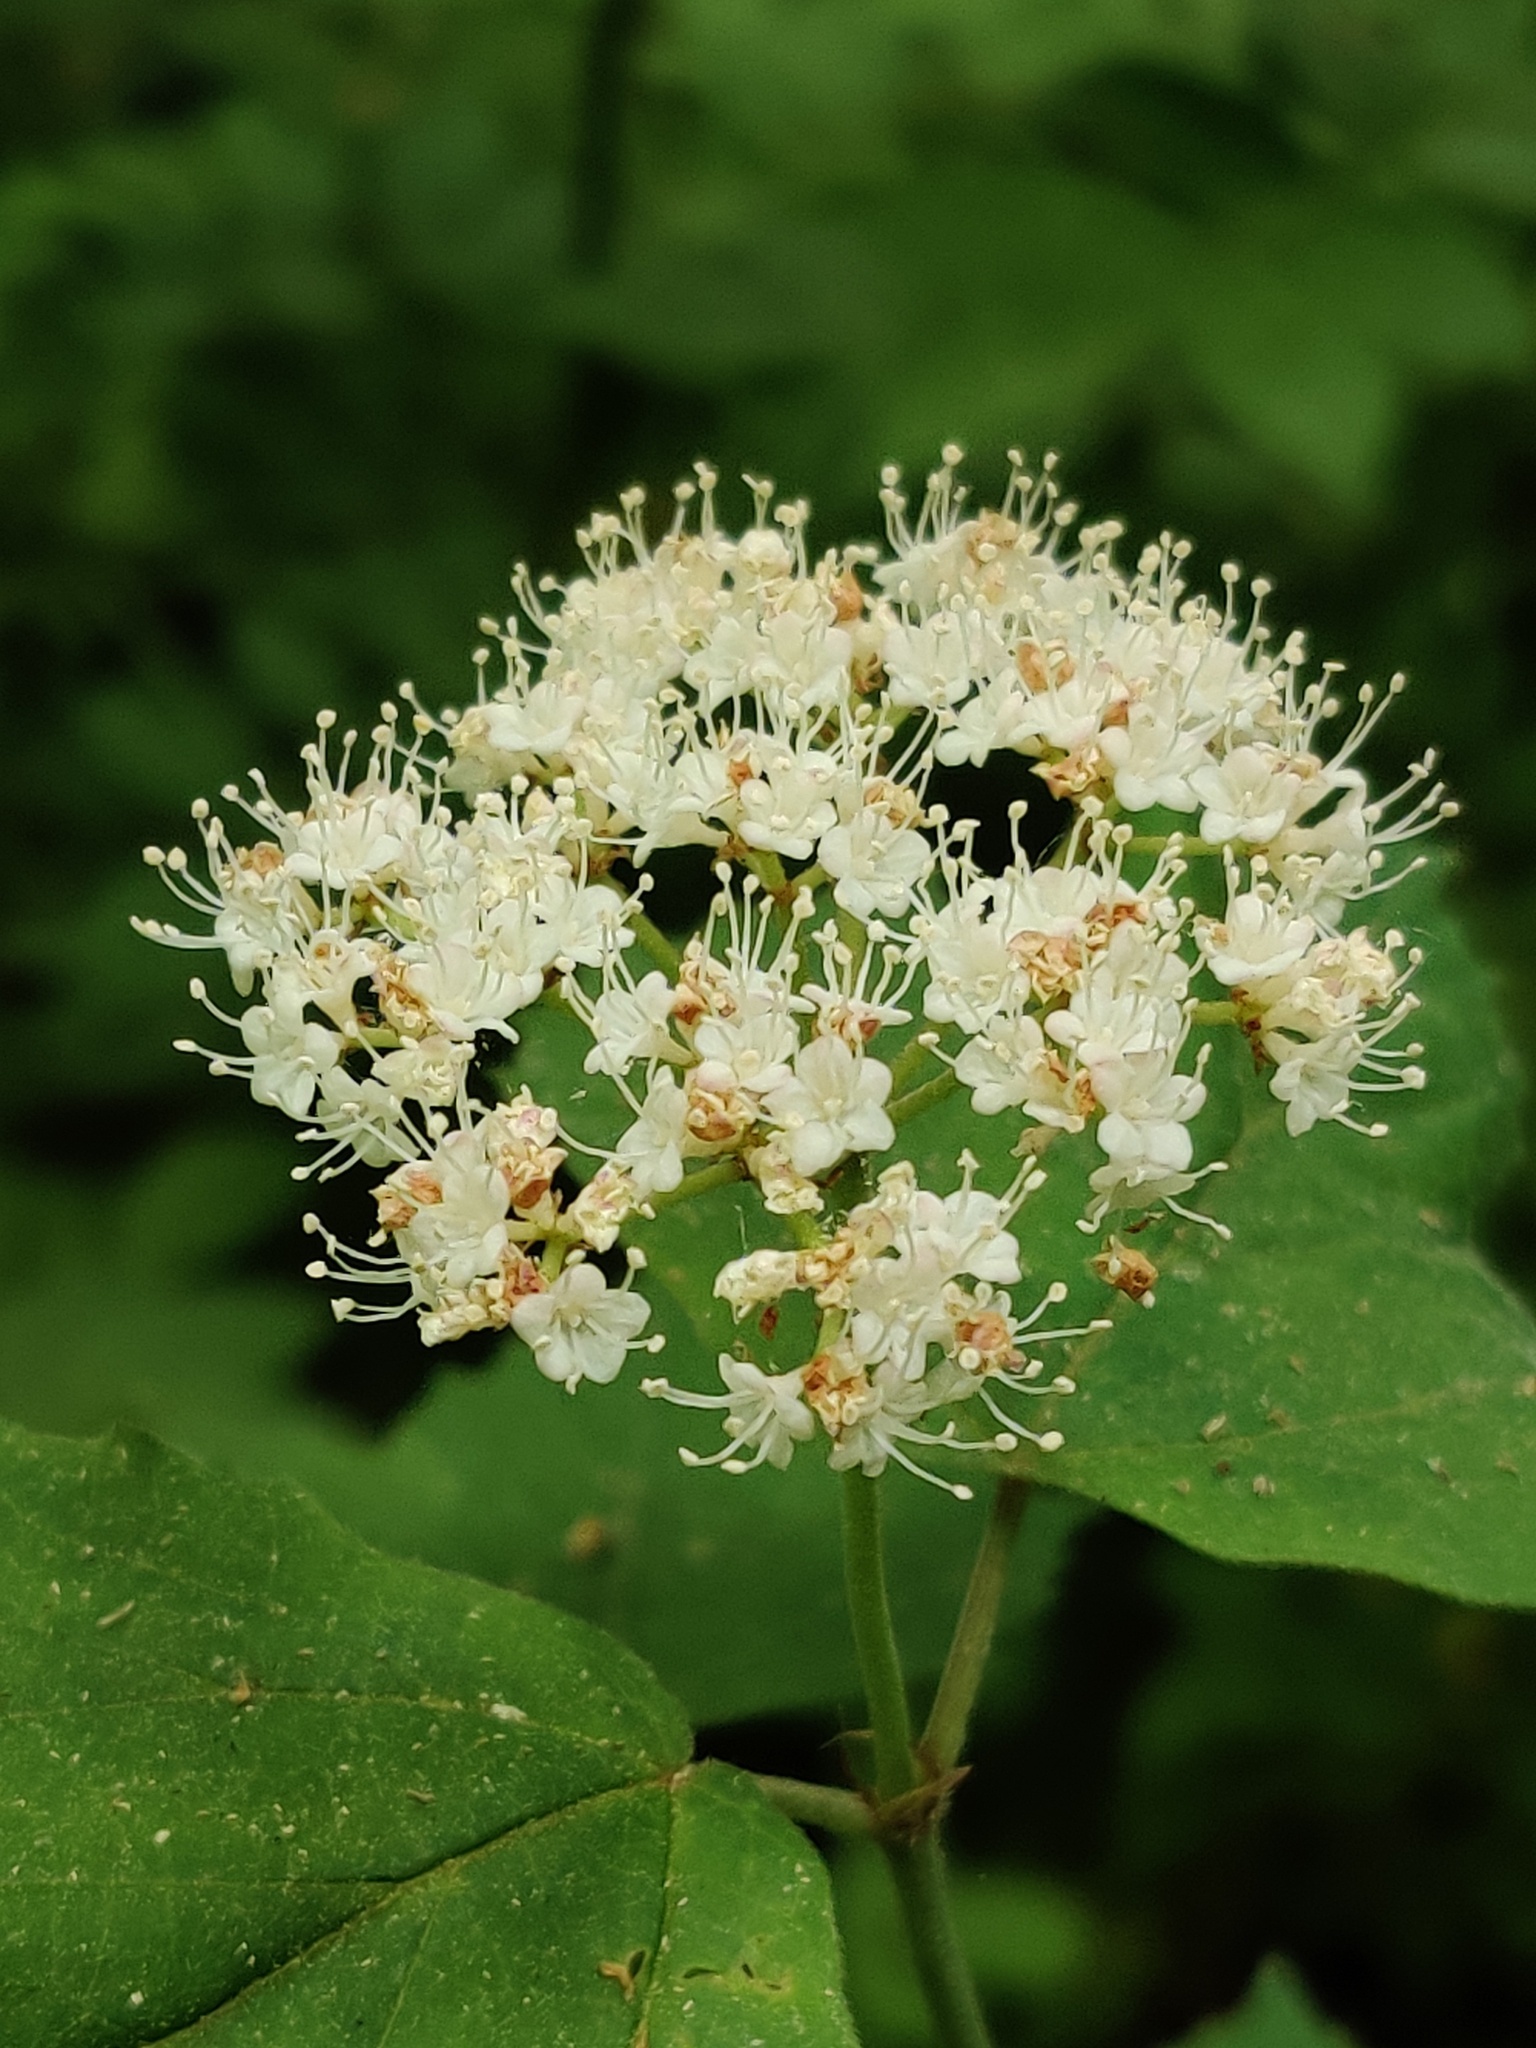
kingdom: Plantae
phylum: Tracheophyta
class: Magnoliopsida
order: Dipsacales
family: Viburnaceae
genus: Viburnum
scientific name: Viburnum acerifolium
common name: Dockmackie
